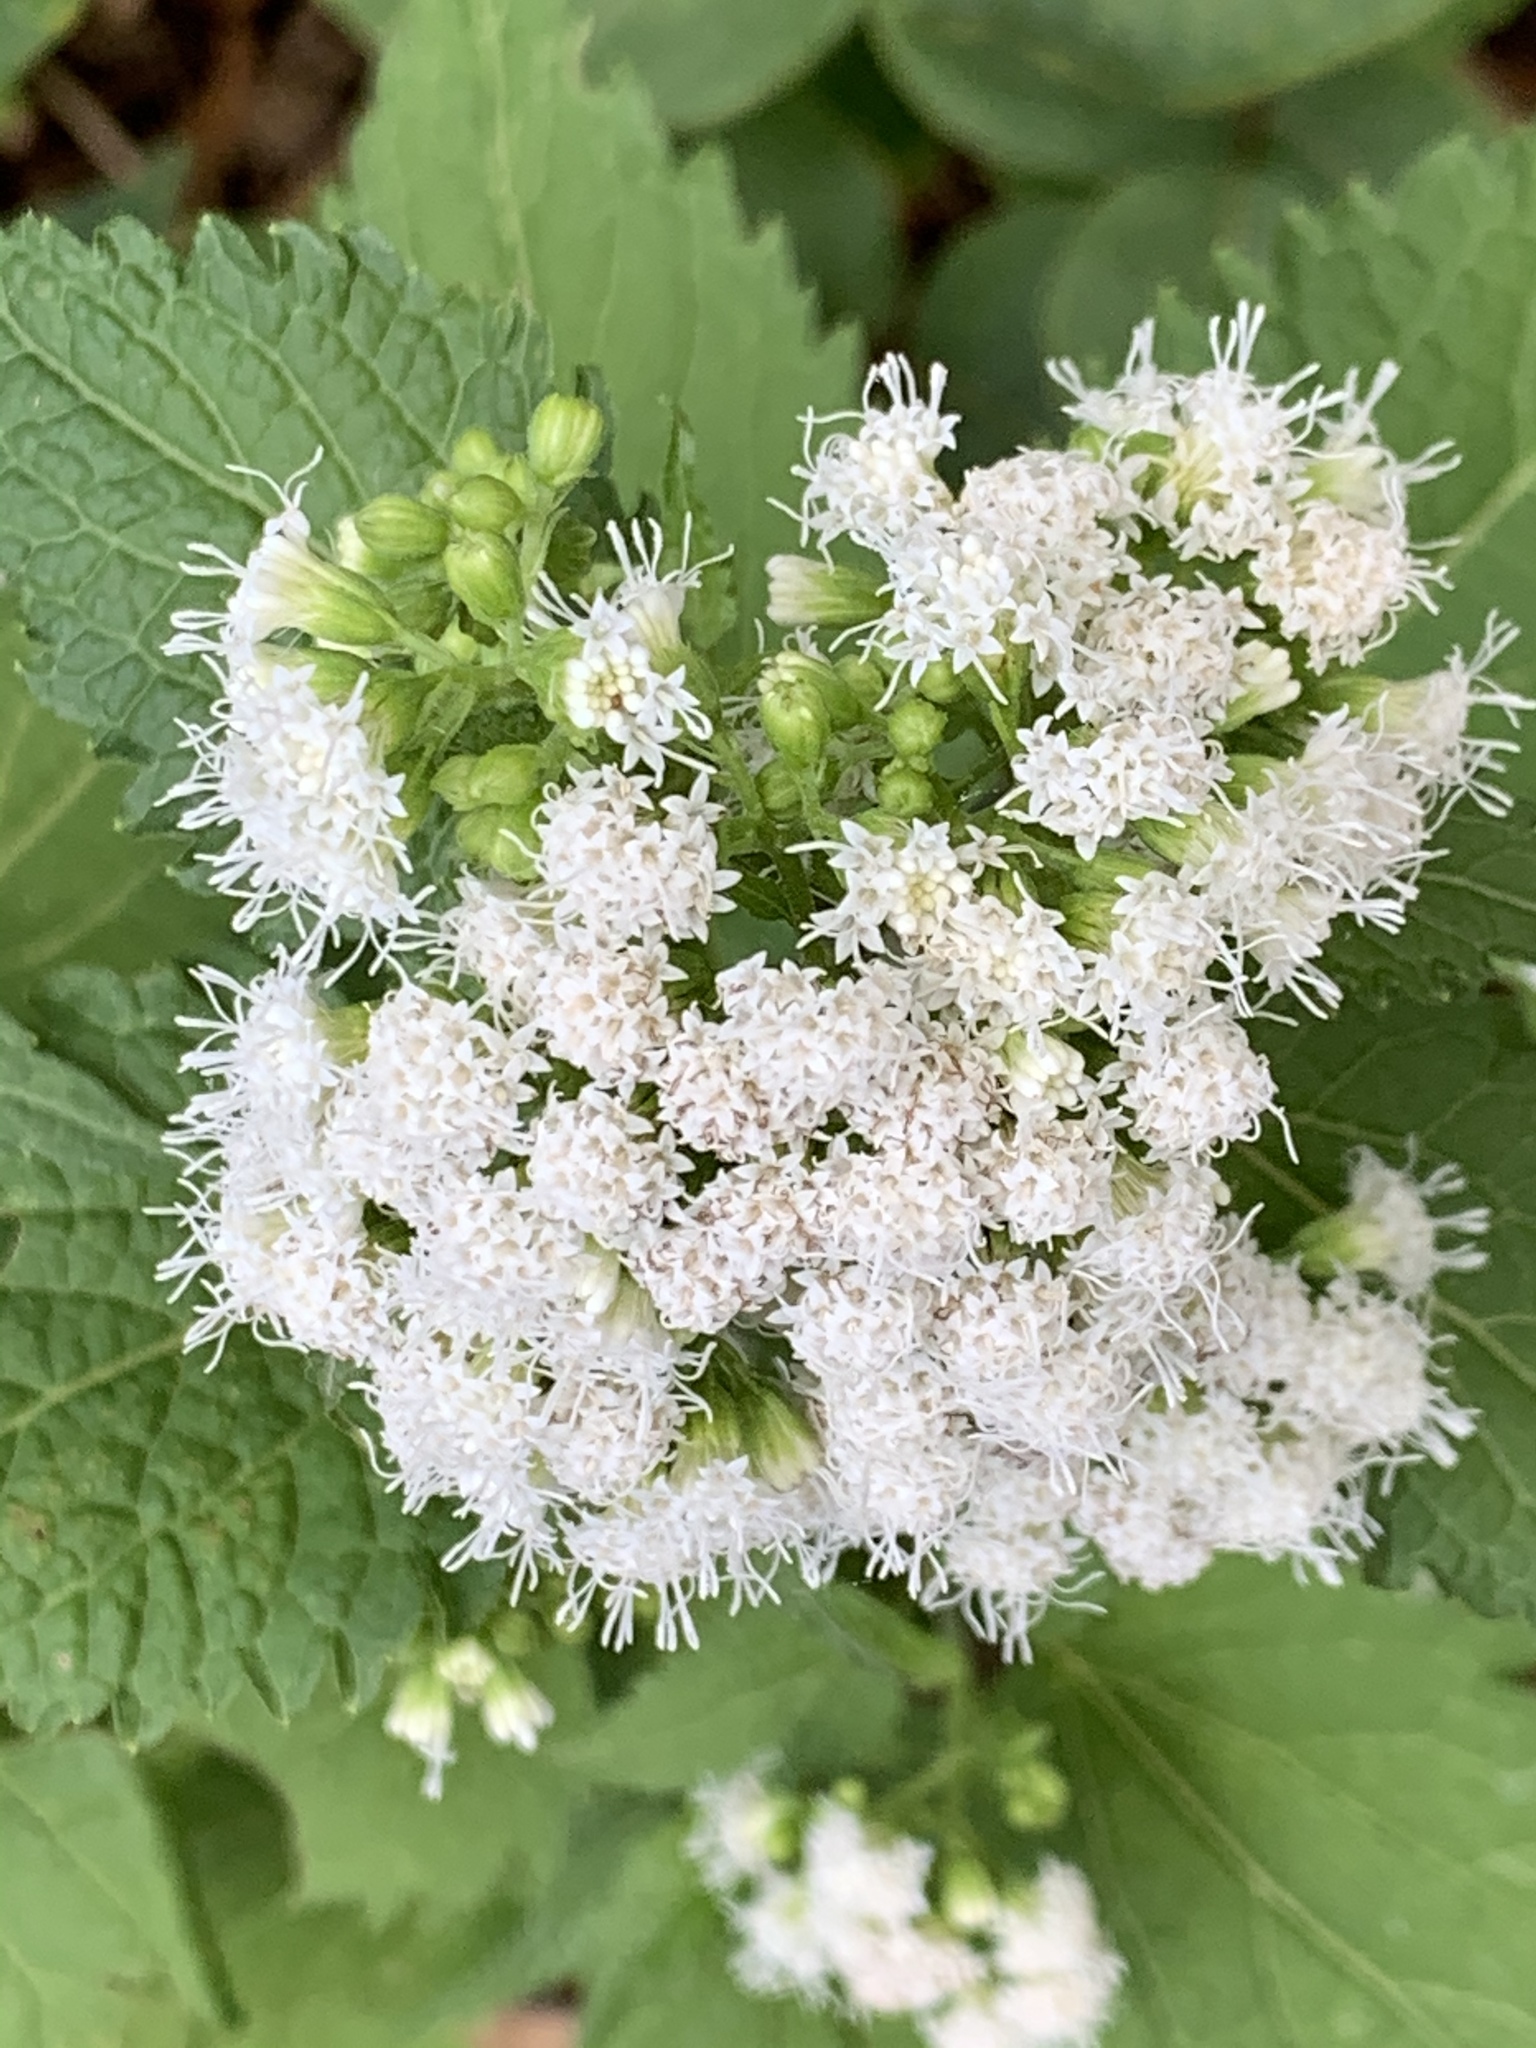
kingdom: Plantae
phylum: Tracheophyta
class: Magnoliopsida
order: Asterales
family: Asteraceae
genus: Ageratina
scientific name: Ageratina altissima
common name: White snakeroot
